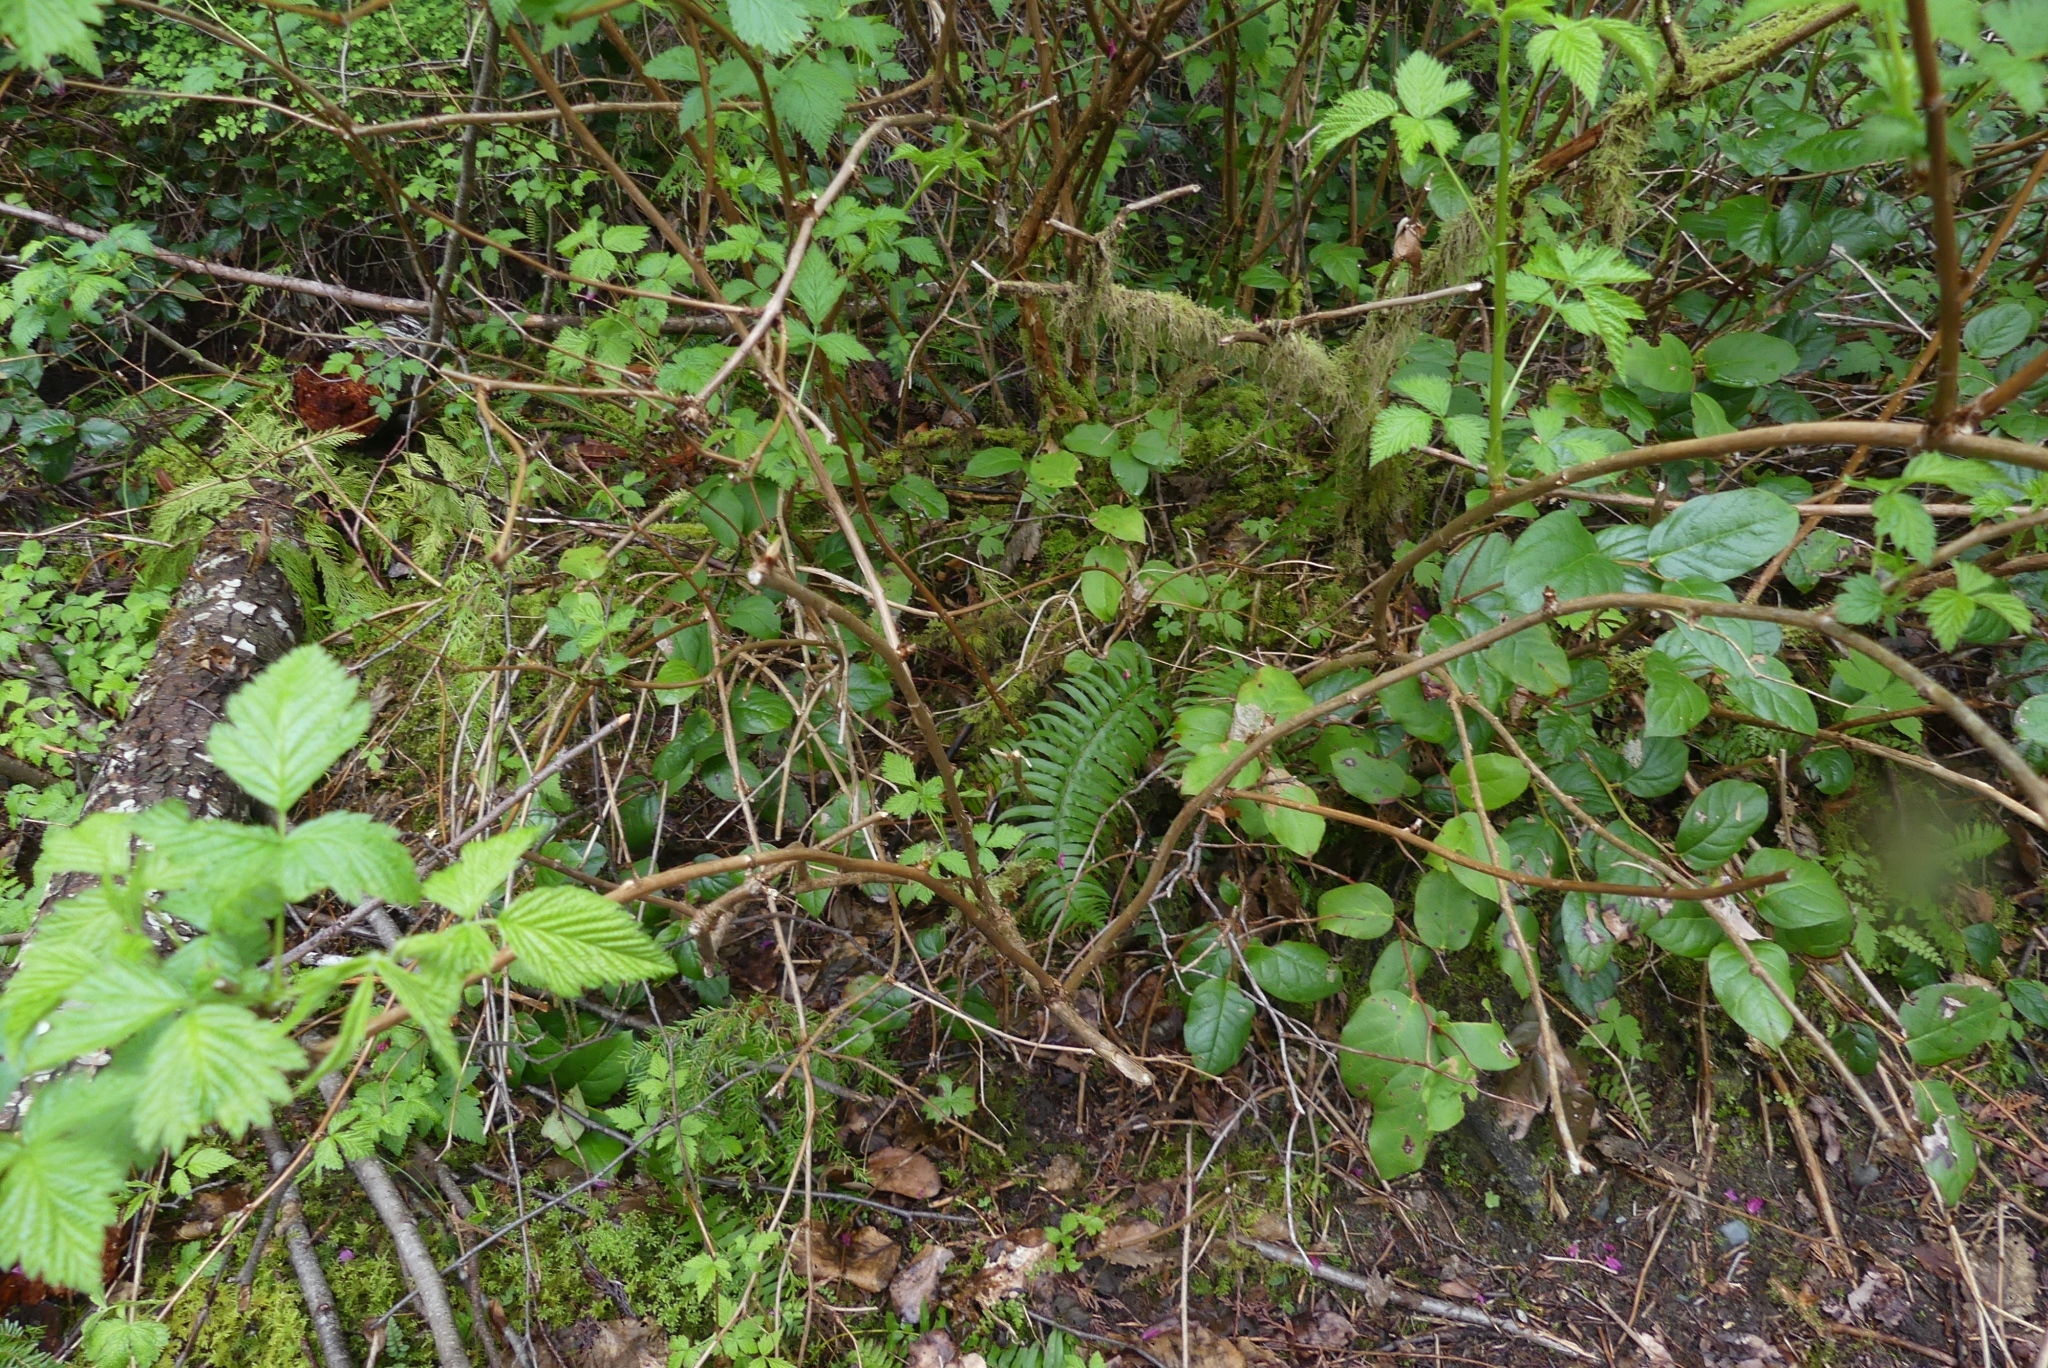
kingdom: Plantae
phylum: Tracheophyta
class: Polypodiopsida
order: Polypodiales
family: Dryopteridaceae
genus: Polystichum
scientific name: Polystichum munitum
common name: Western sword-fern
